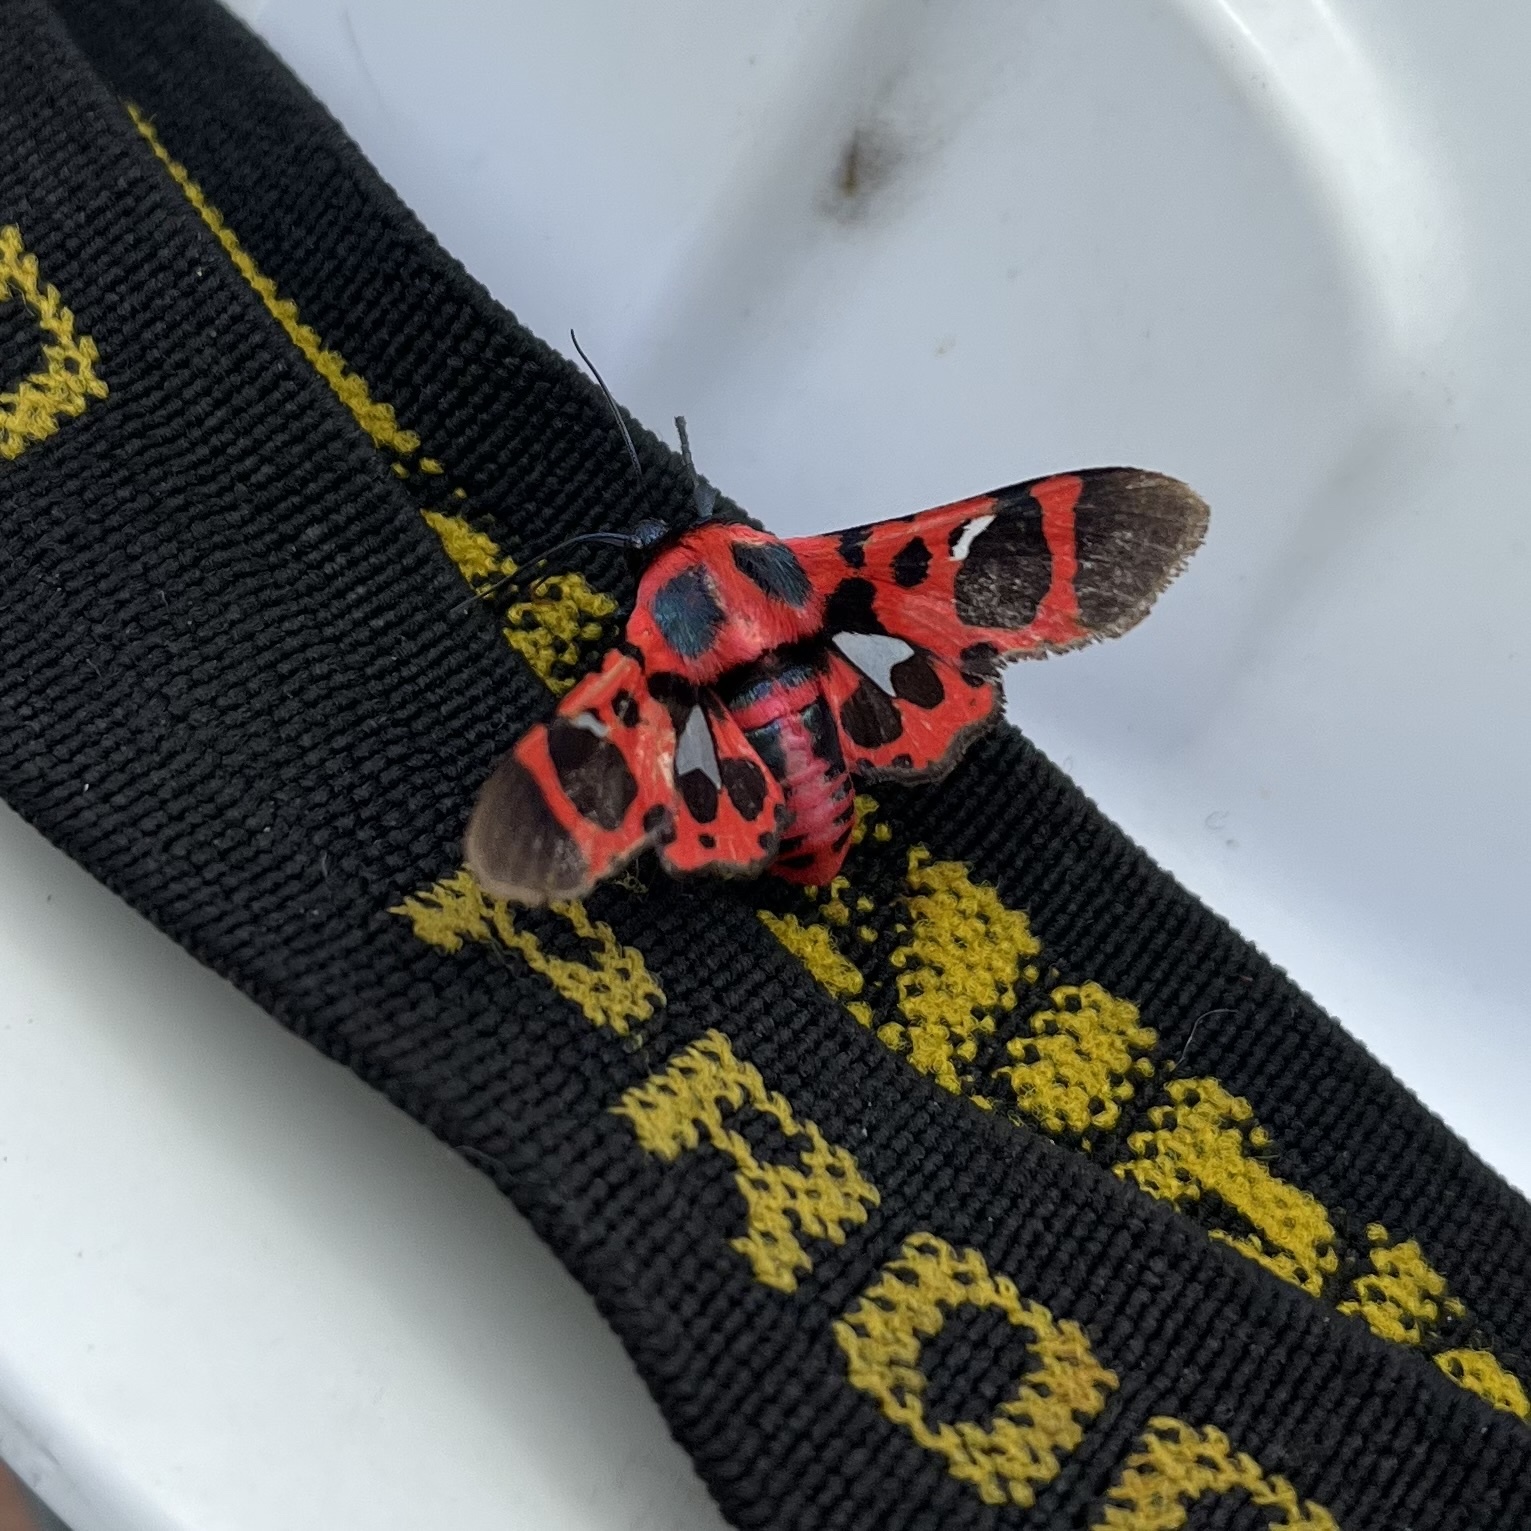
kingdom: Animalia
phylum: Arthropoda
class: Insecta
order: Lepidoptera
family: Thyrididae
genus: Glanycus
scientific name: Glanycus insolitus
